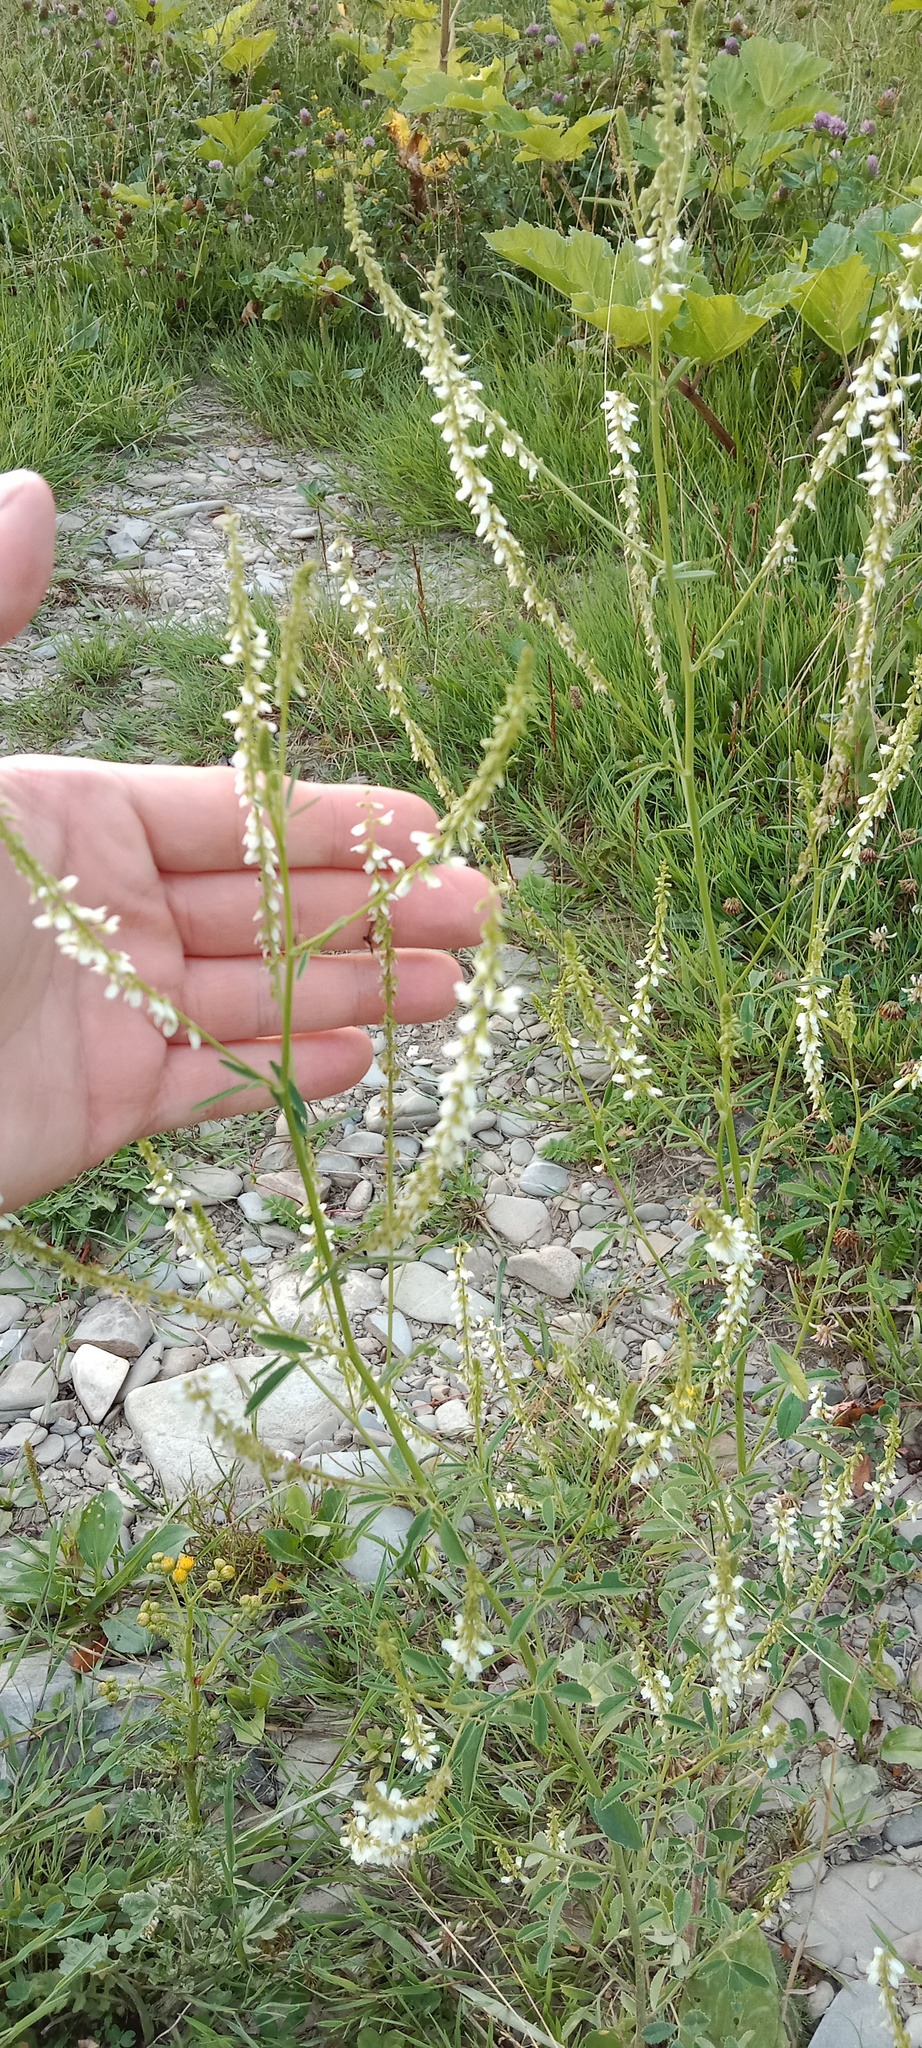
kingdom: Plantae
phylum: Tracheophyta
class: Magnoliopsida
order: Fabales
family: Fabaceae
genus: Melilotus
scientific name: Melilotus albus
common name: White melilot
